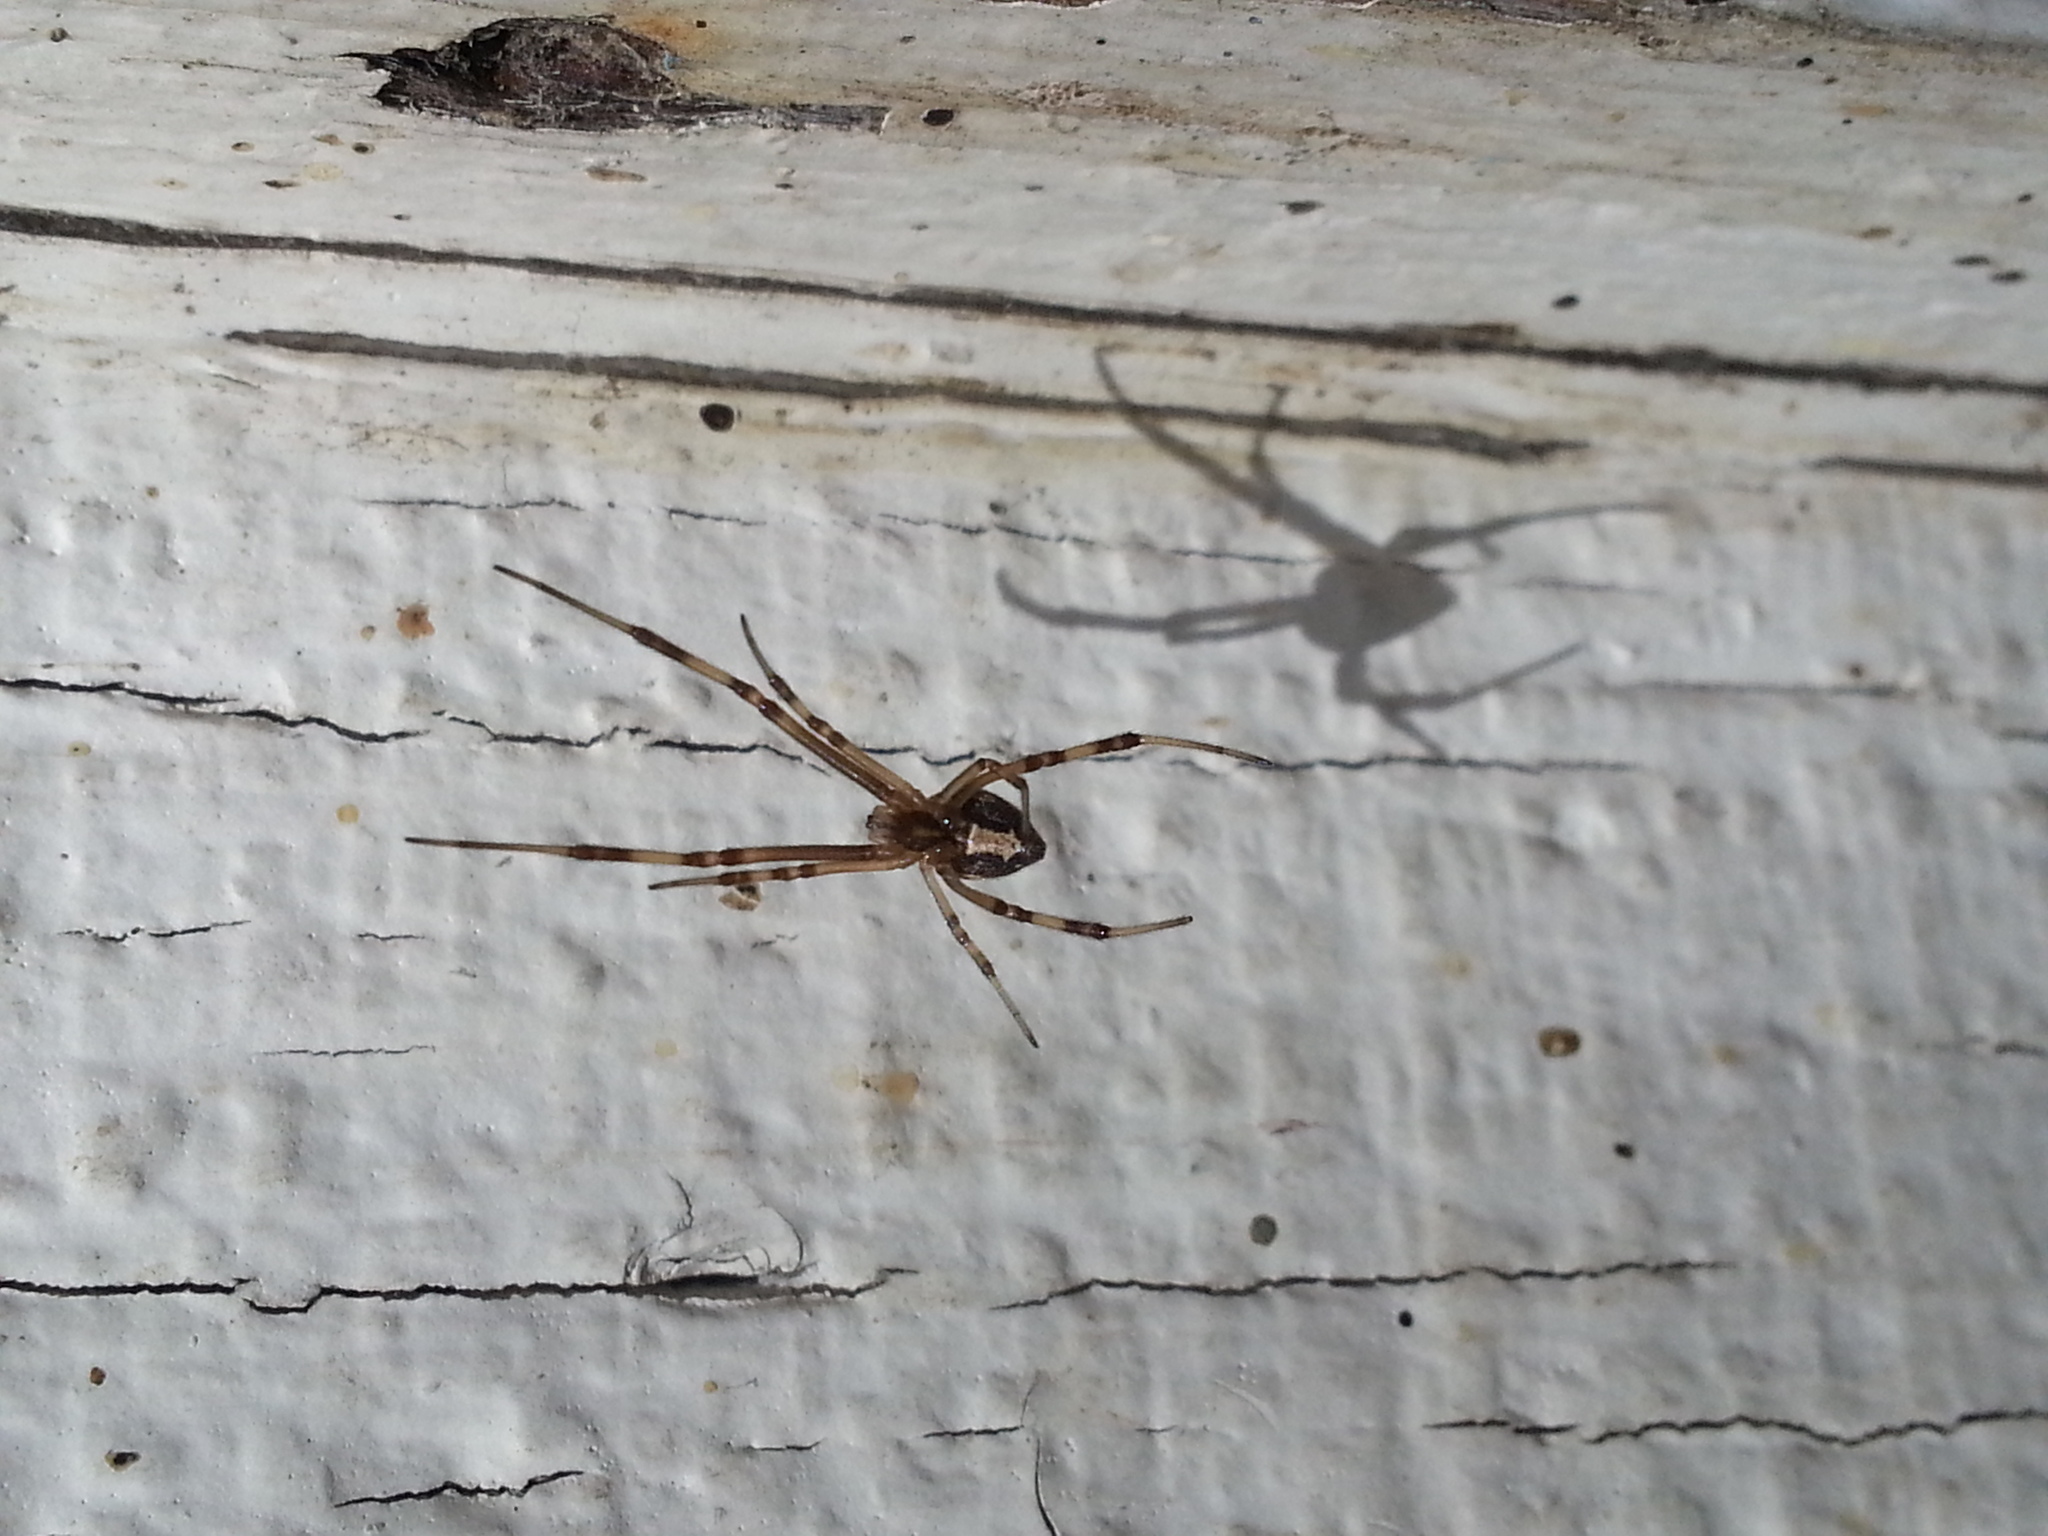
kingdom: Animalia
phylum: Arthropoda
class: Arachnida
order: Araneae
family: Theridiidae
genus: Latrodectus
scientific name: Latrodectus hesperus
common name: Western black widow
